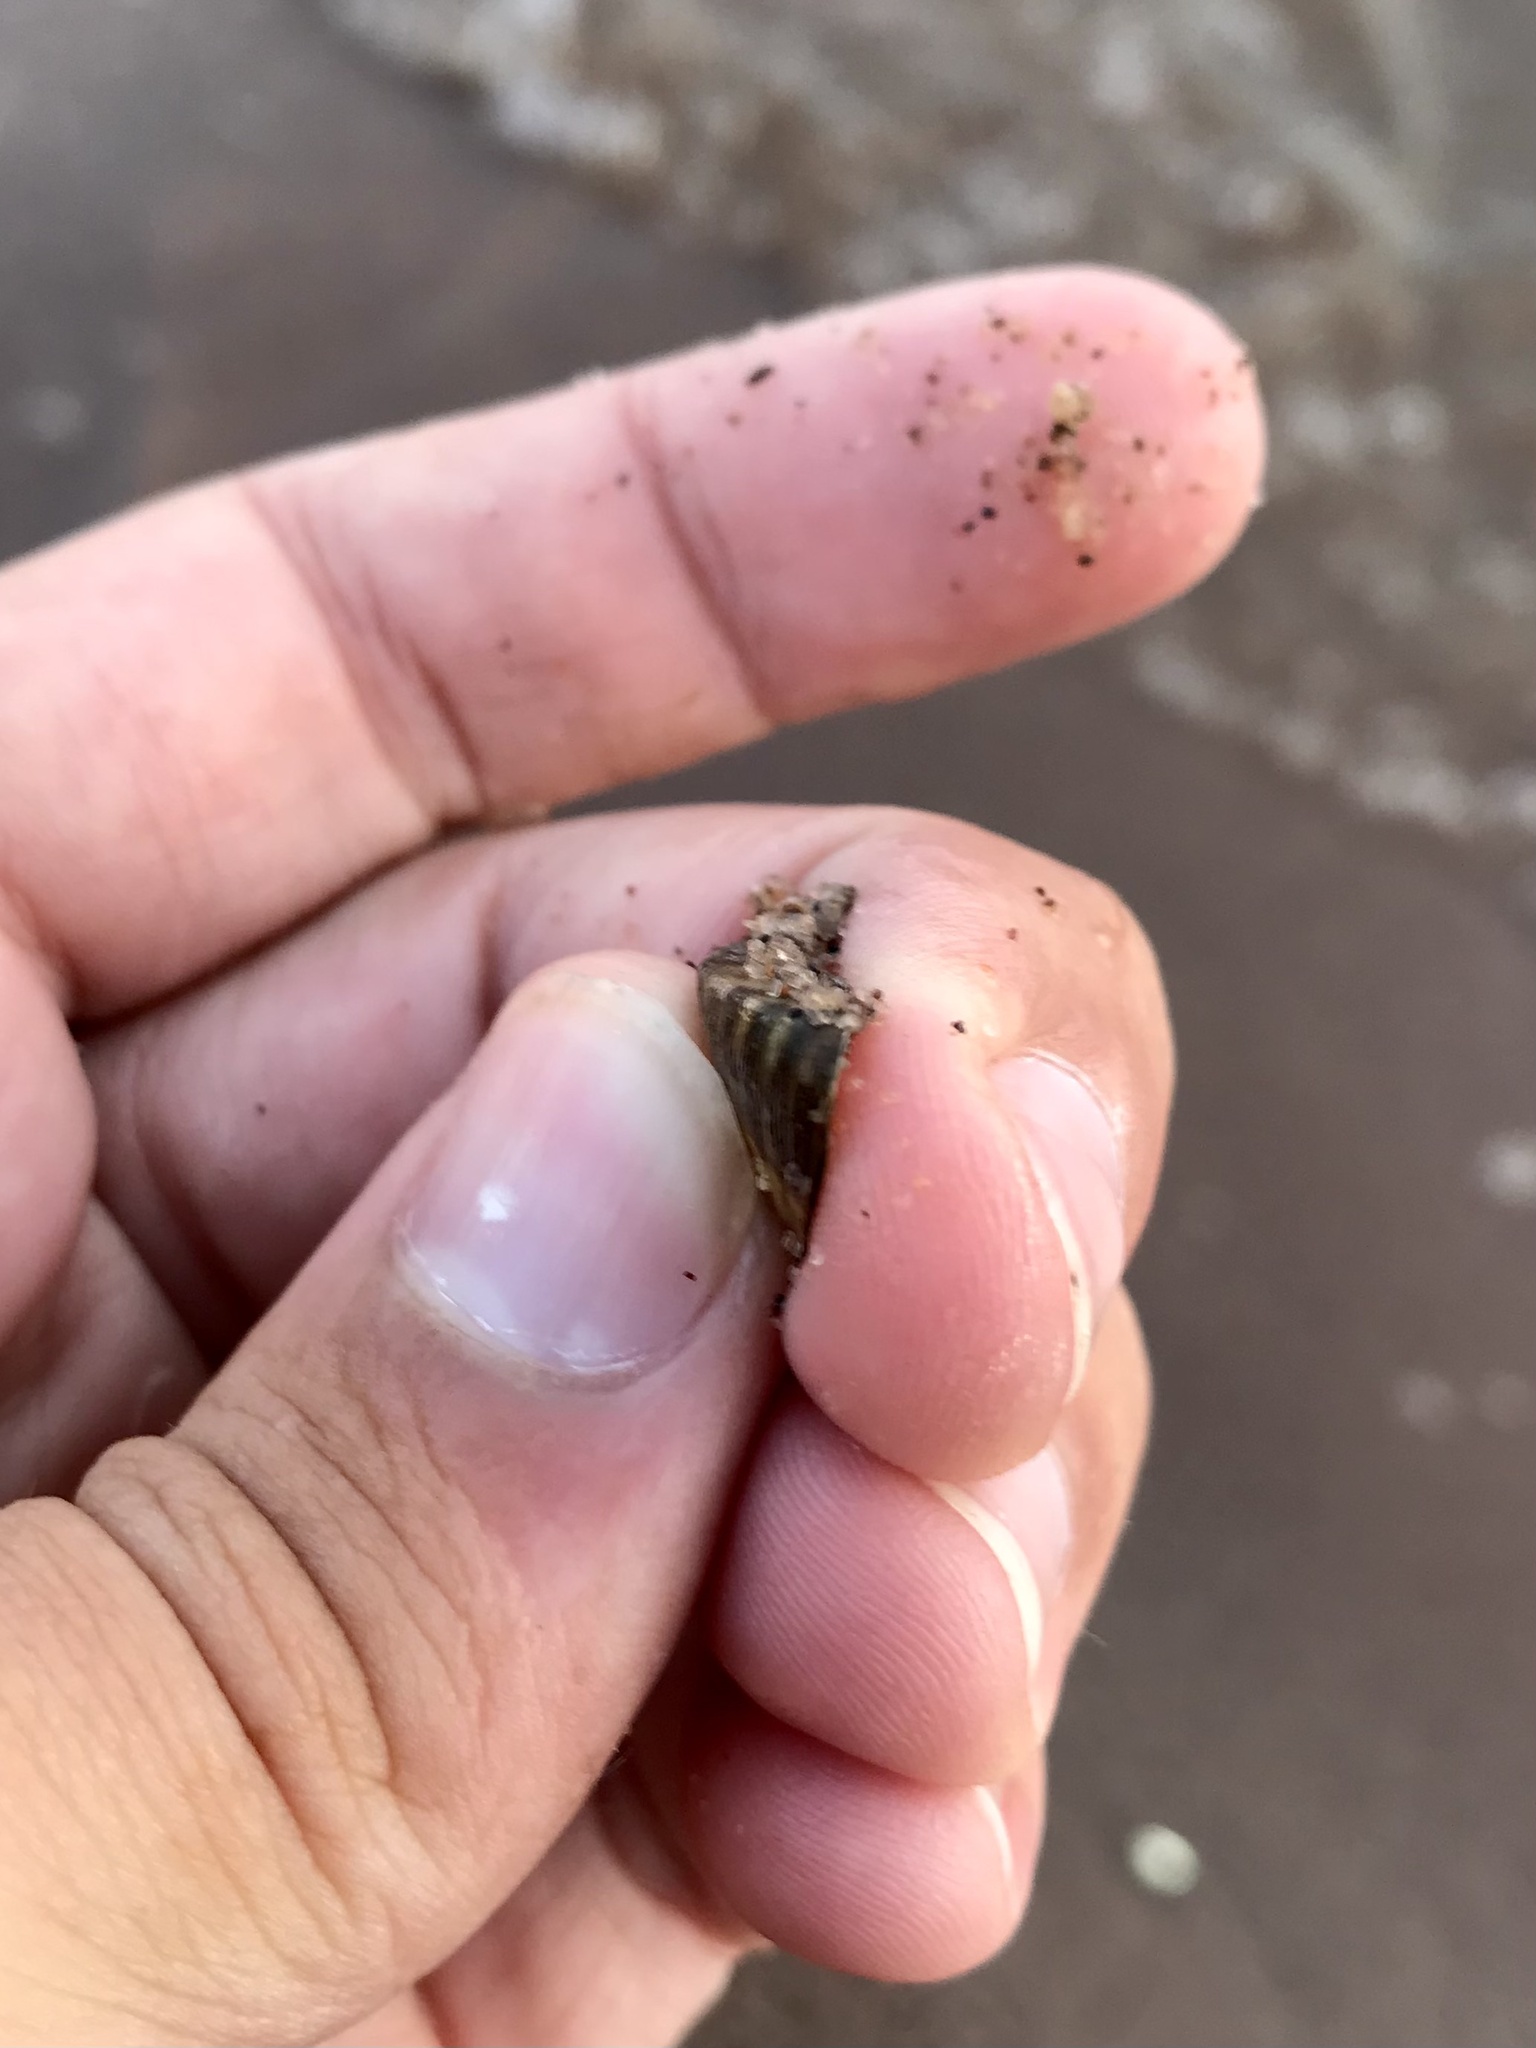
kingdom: Animalia
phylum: Mollusca
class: Bivalvia
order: Myida
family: Dreissenidae
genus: Dreissena
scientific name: Dreissena polymorpha
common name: Zebra mussel
